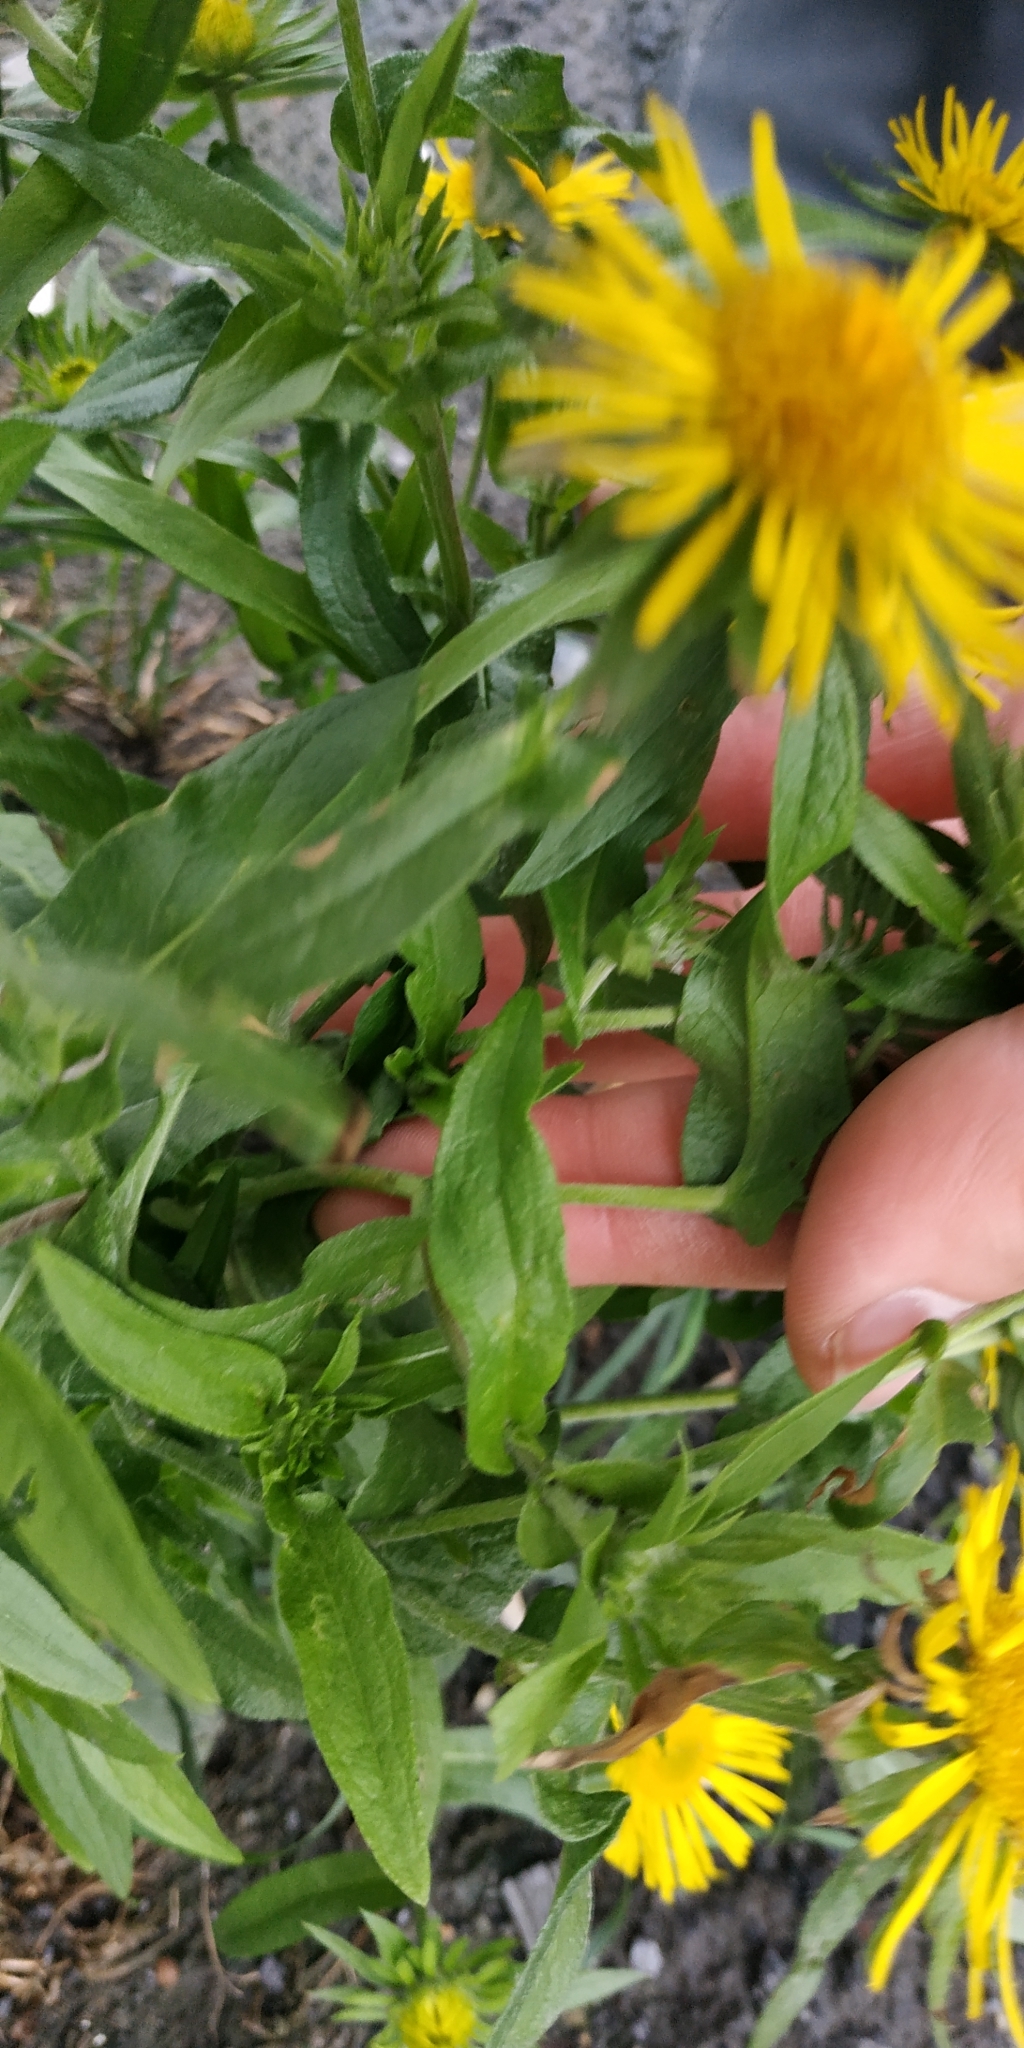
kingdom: Plantae
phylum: Tracheophyta
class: Magnoliopsida
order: Asterales
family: Asteraceae
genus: Pentanema
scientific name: Pentanema britannicum
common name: British elecampane
